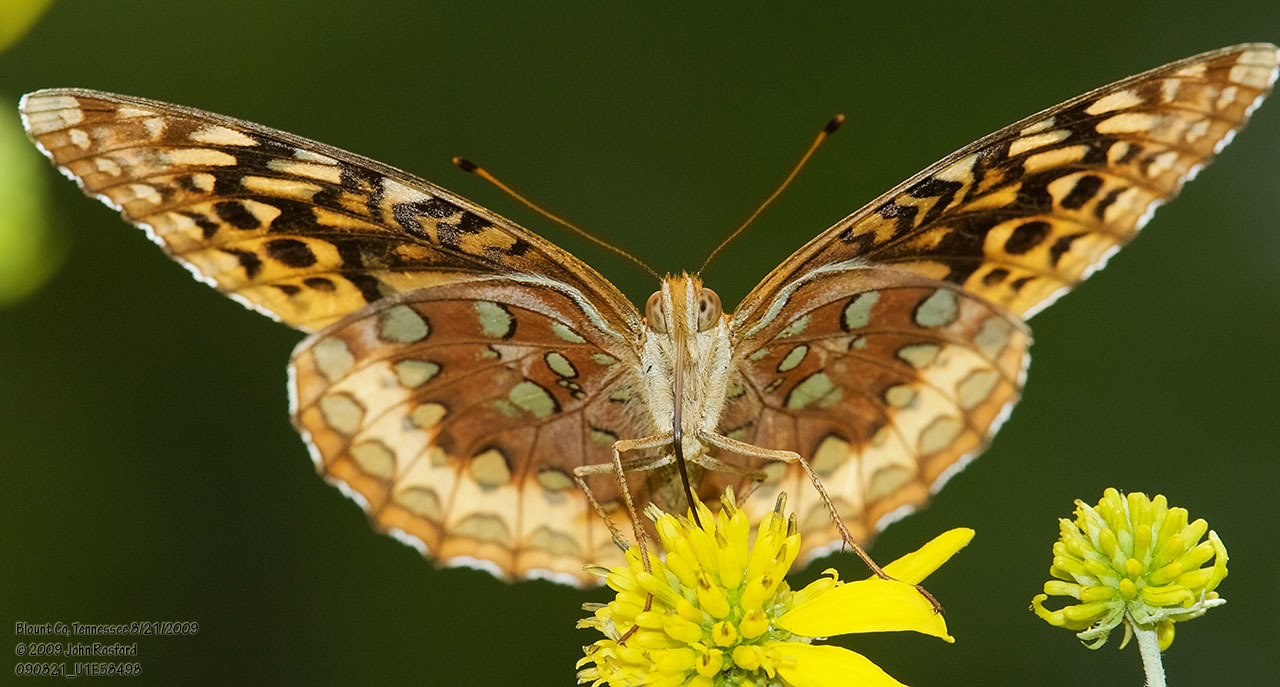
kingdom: Animalia
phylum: Arthropoda
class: Insecta
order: Lepidoptera
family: Nymphalidae
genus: Speyeria
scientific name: Speyeria cybele
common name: Great spangled fritillary
